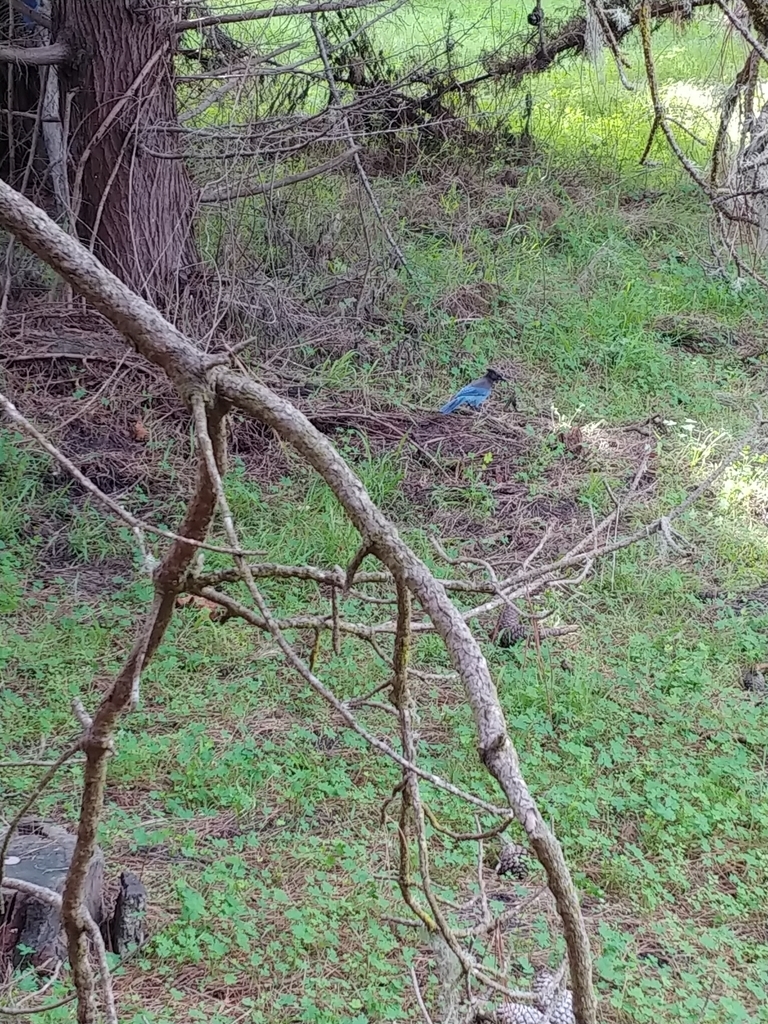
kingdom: Animalia
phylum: Chordata
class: Aves
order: Passeriformes
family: Corvidae
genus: Cyanocitta
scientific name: Cyanocitta stelleri
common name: Steller's jay
